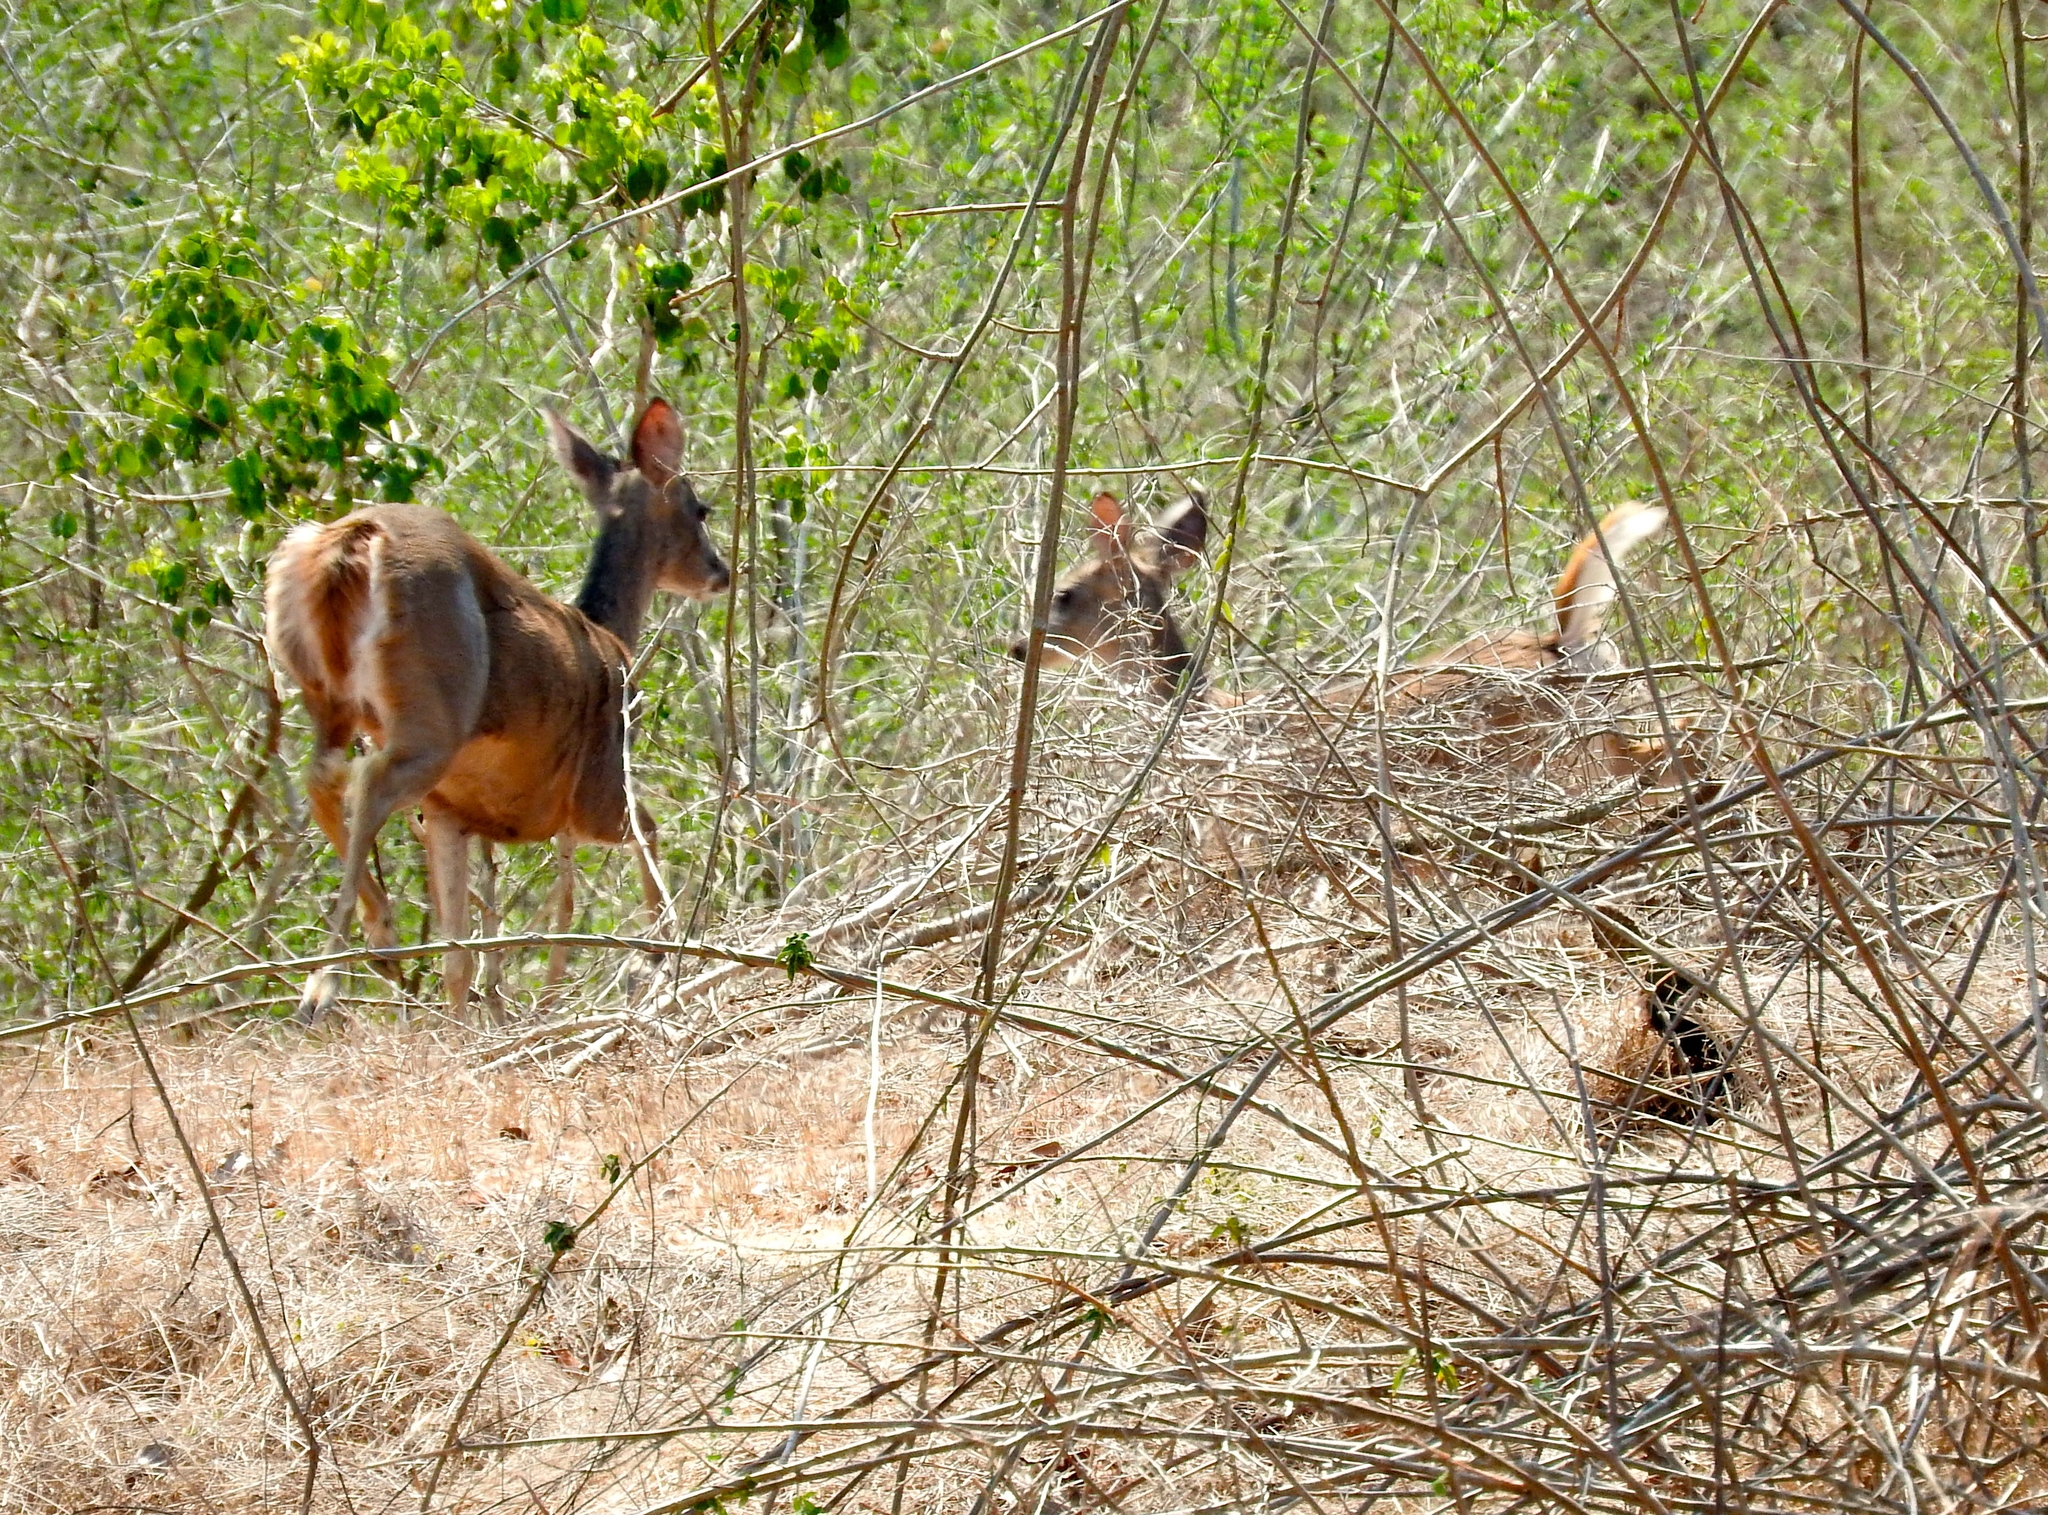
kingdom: Animalia
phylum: Chordata
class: Mammalia
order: Artiodactyla
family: Cervidae
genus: Odocoileus
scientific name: Odocoileus virginianus
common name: White-tailed deer
